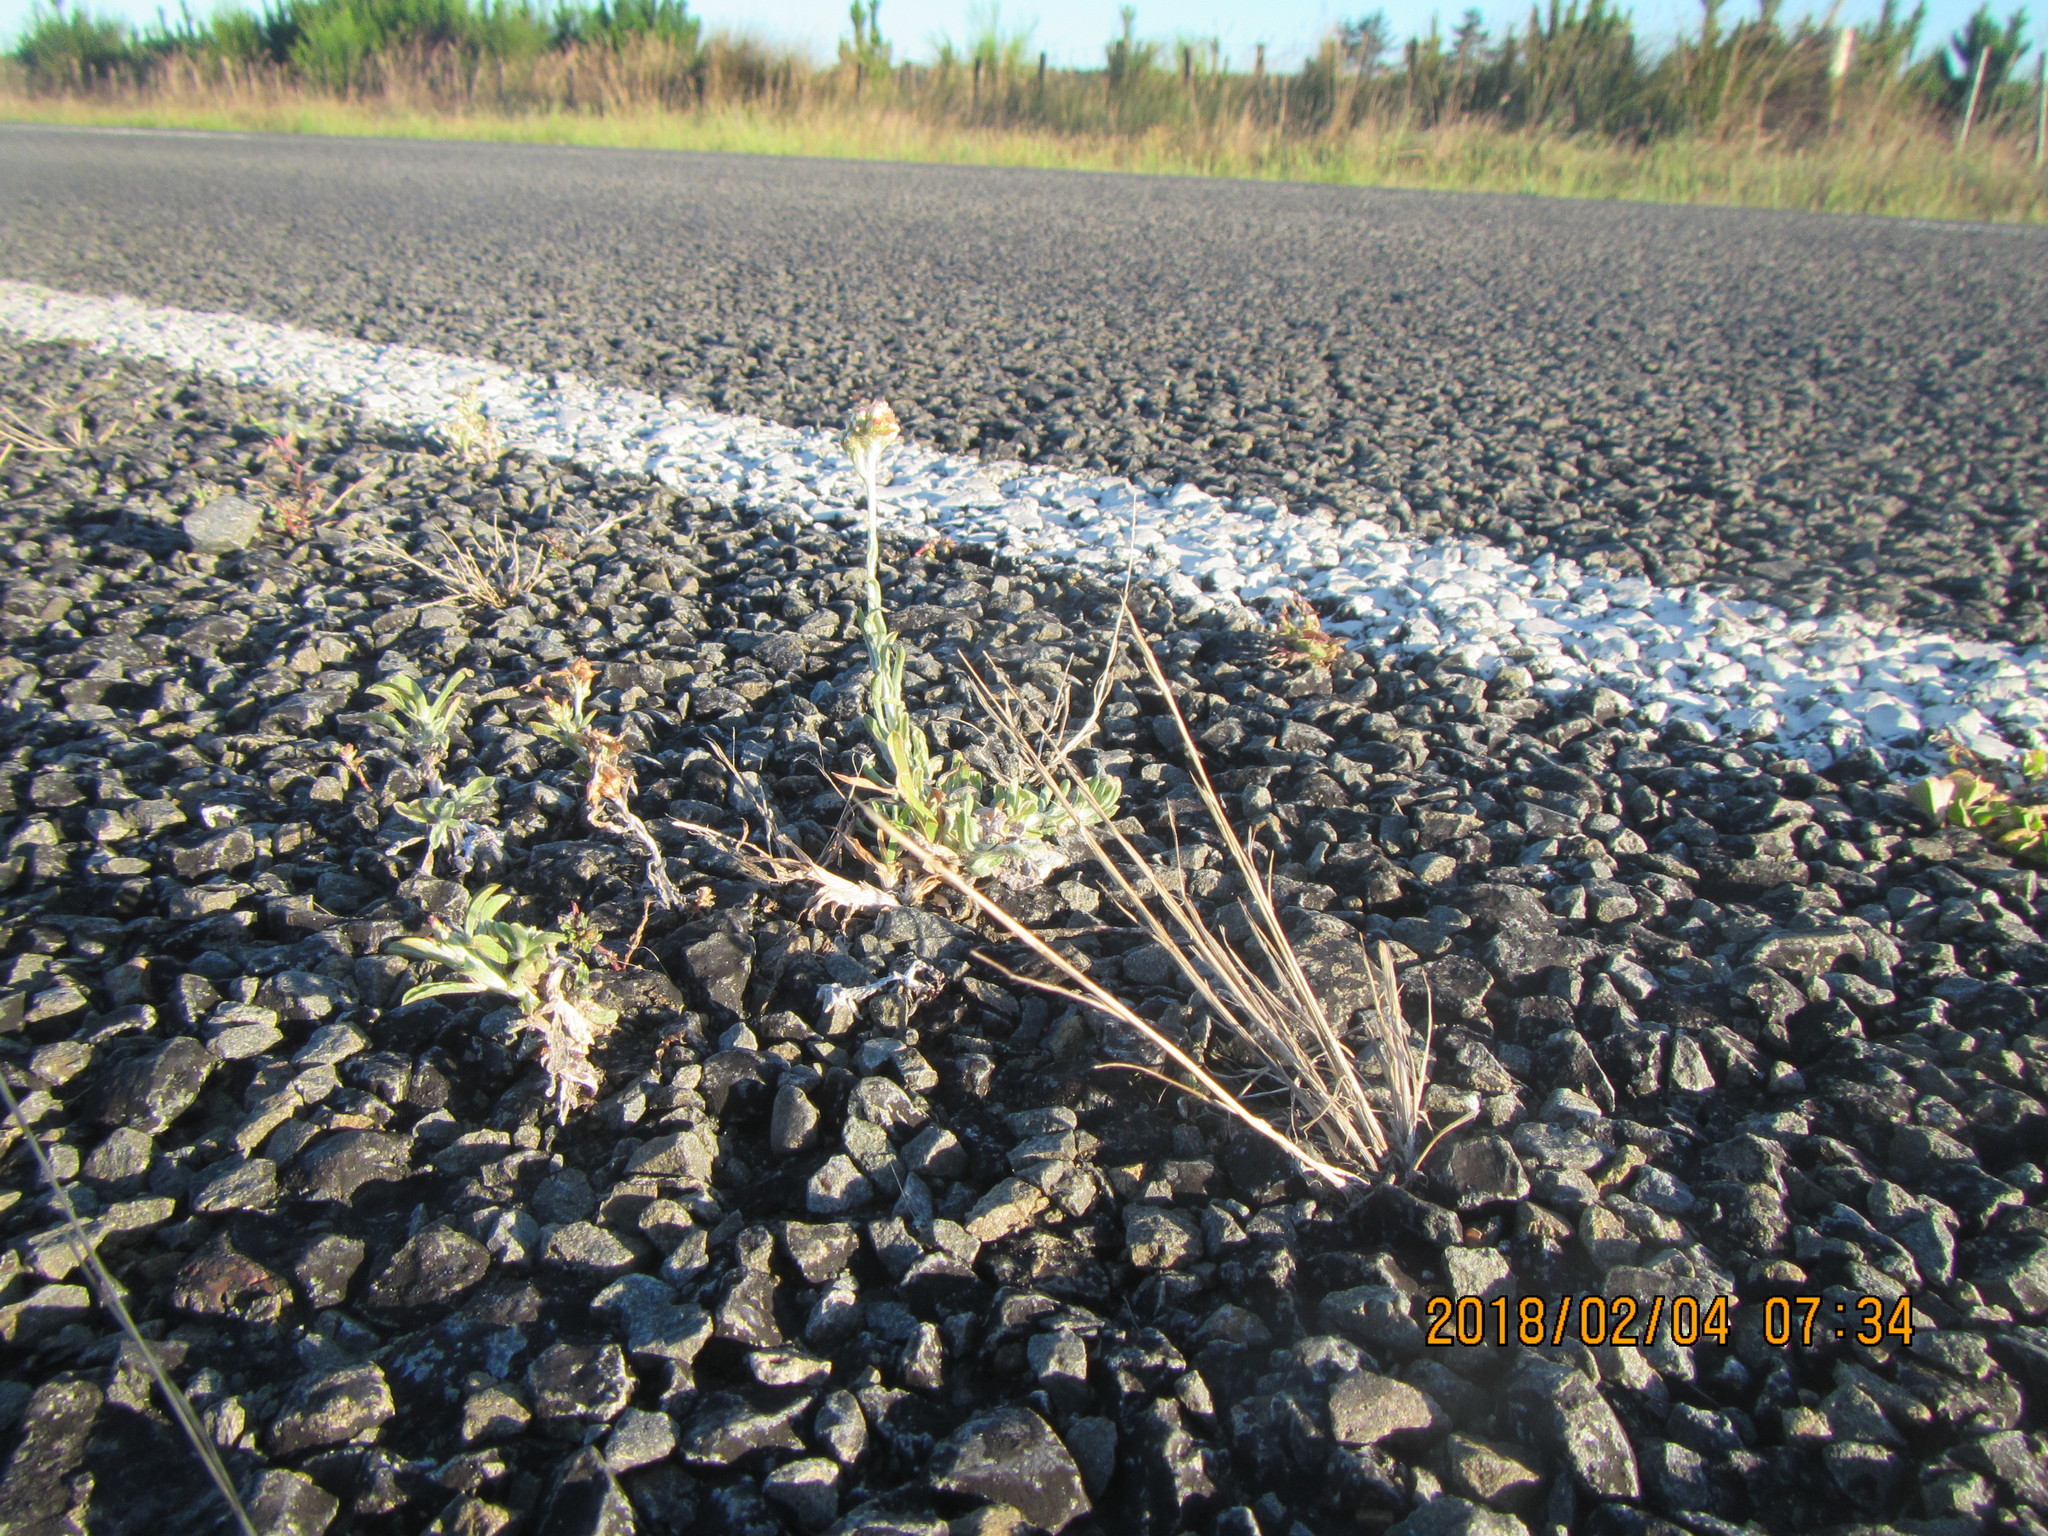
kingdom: Plantae
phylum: Tracheophyta
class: Magnoliopsida
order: Asterales
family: Asteraceae
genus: Helichrysum
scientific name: Helichrysum luteoalbum
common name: Daisy
